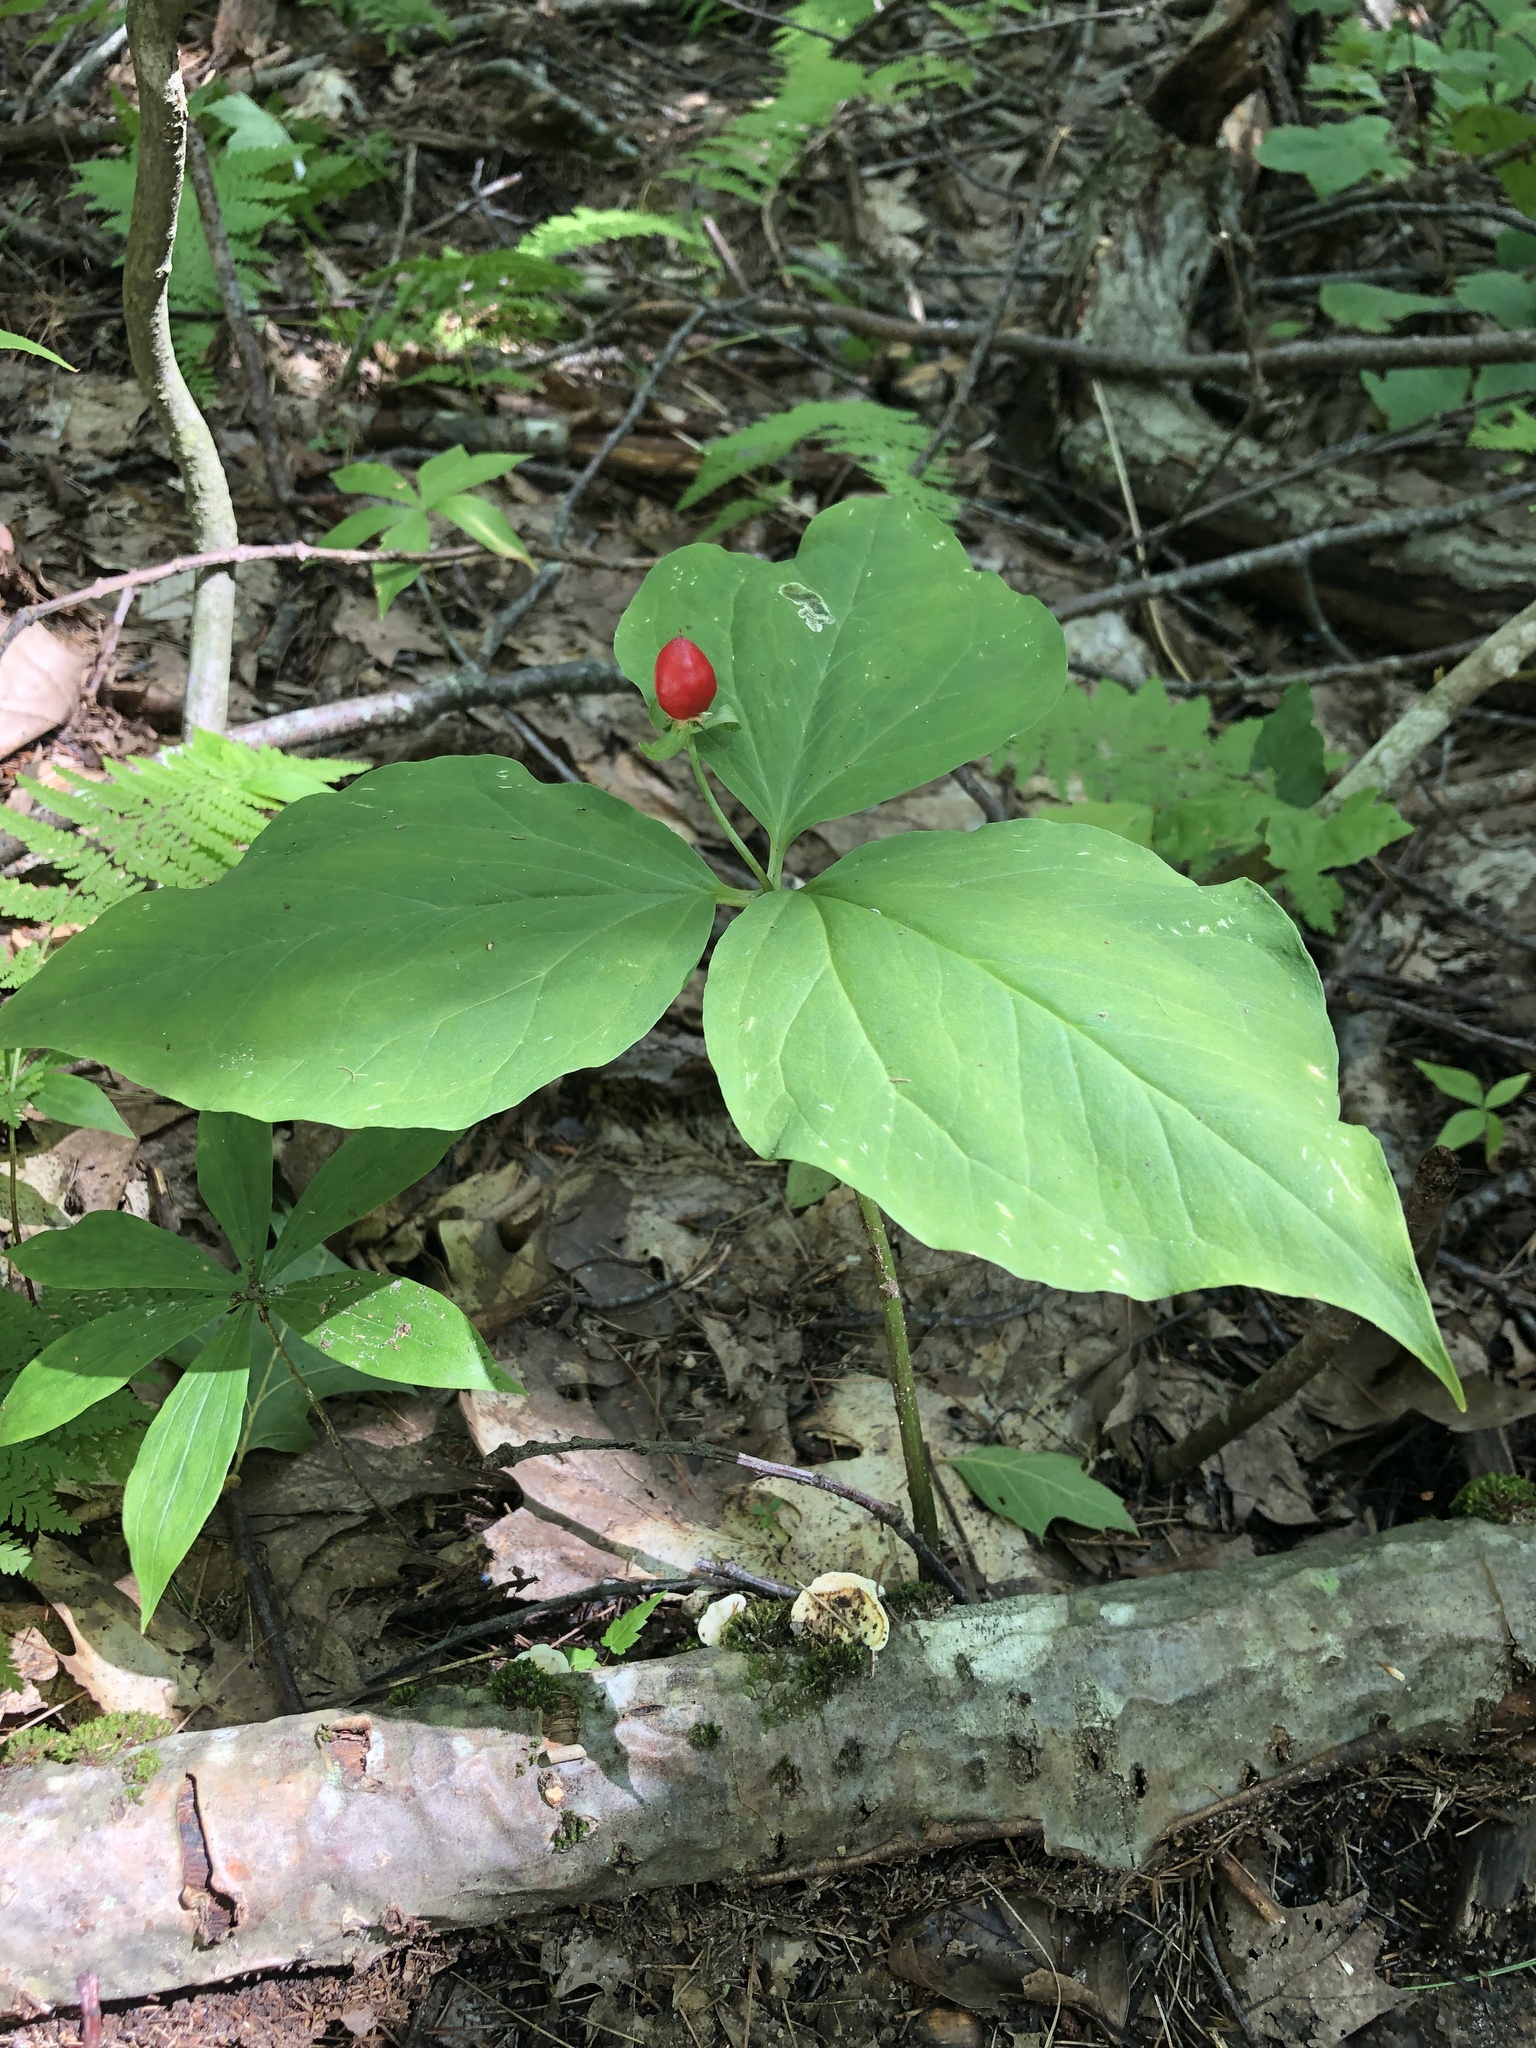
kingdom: Plantae
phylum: Tracheophyta
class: Liliopsida
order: Liliales
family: Melanthiaceae
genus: Trillium
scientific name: Trillium undulatum
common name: Paint trillium
